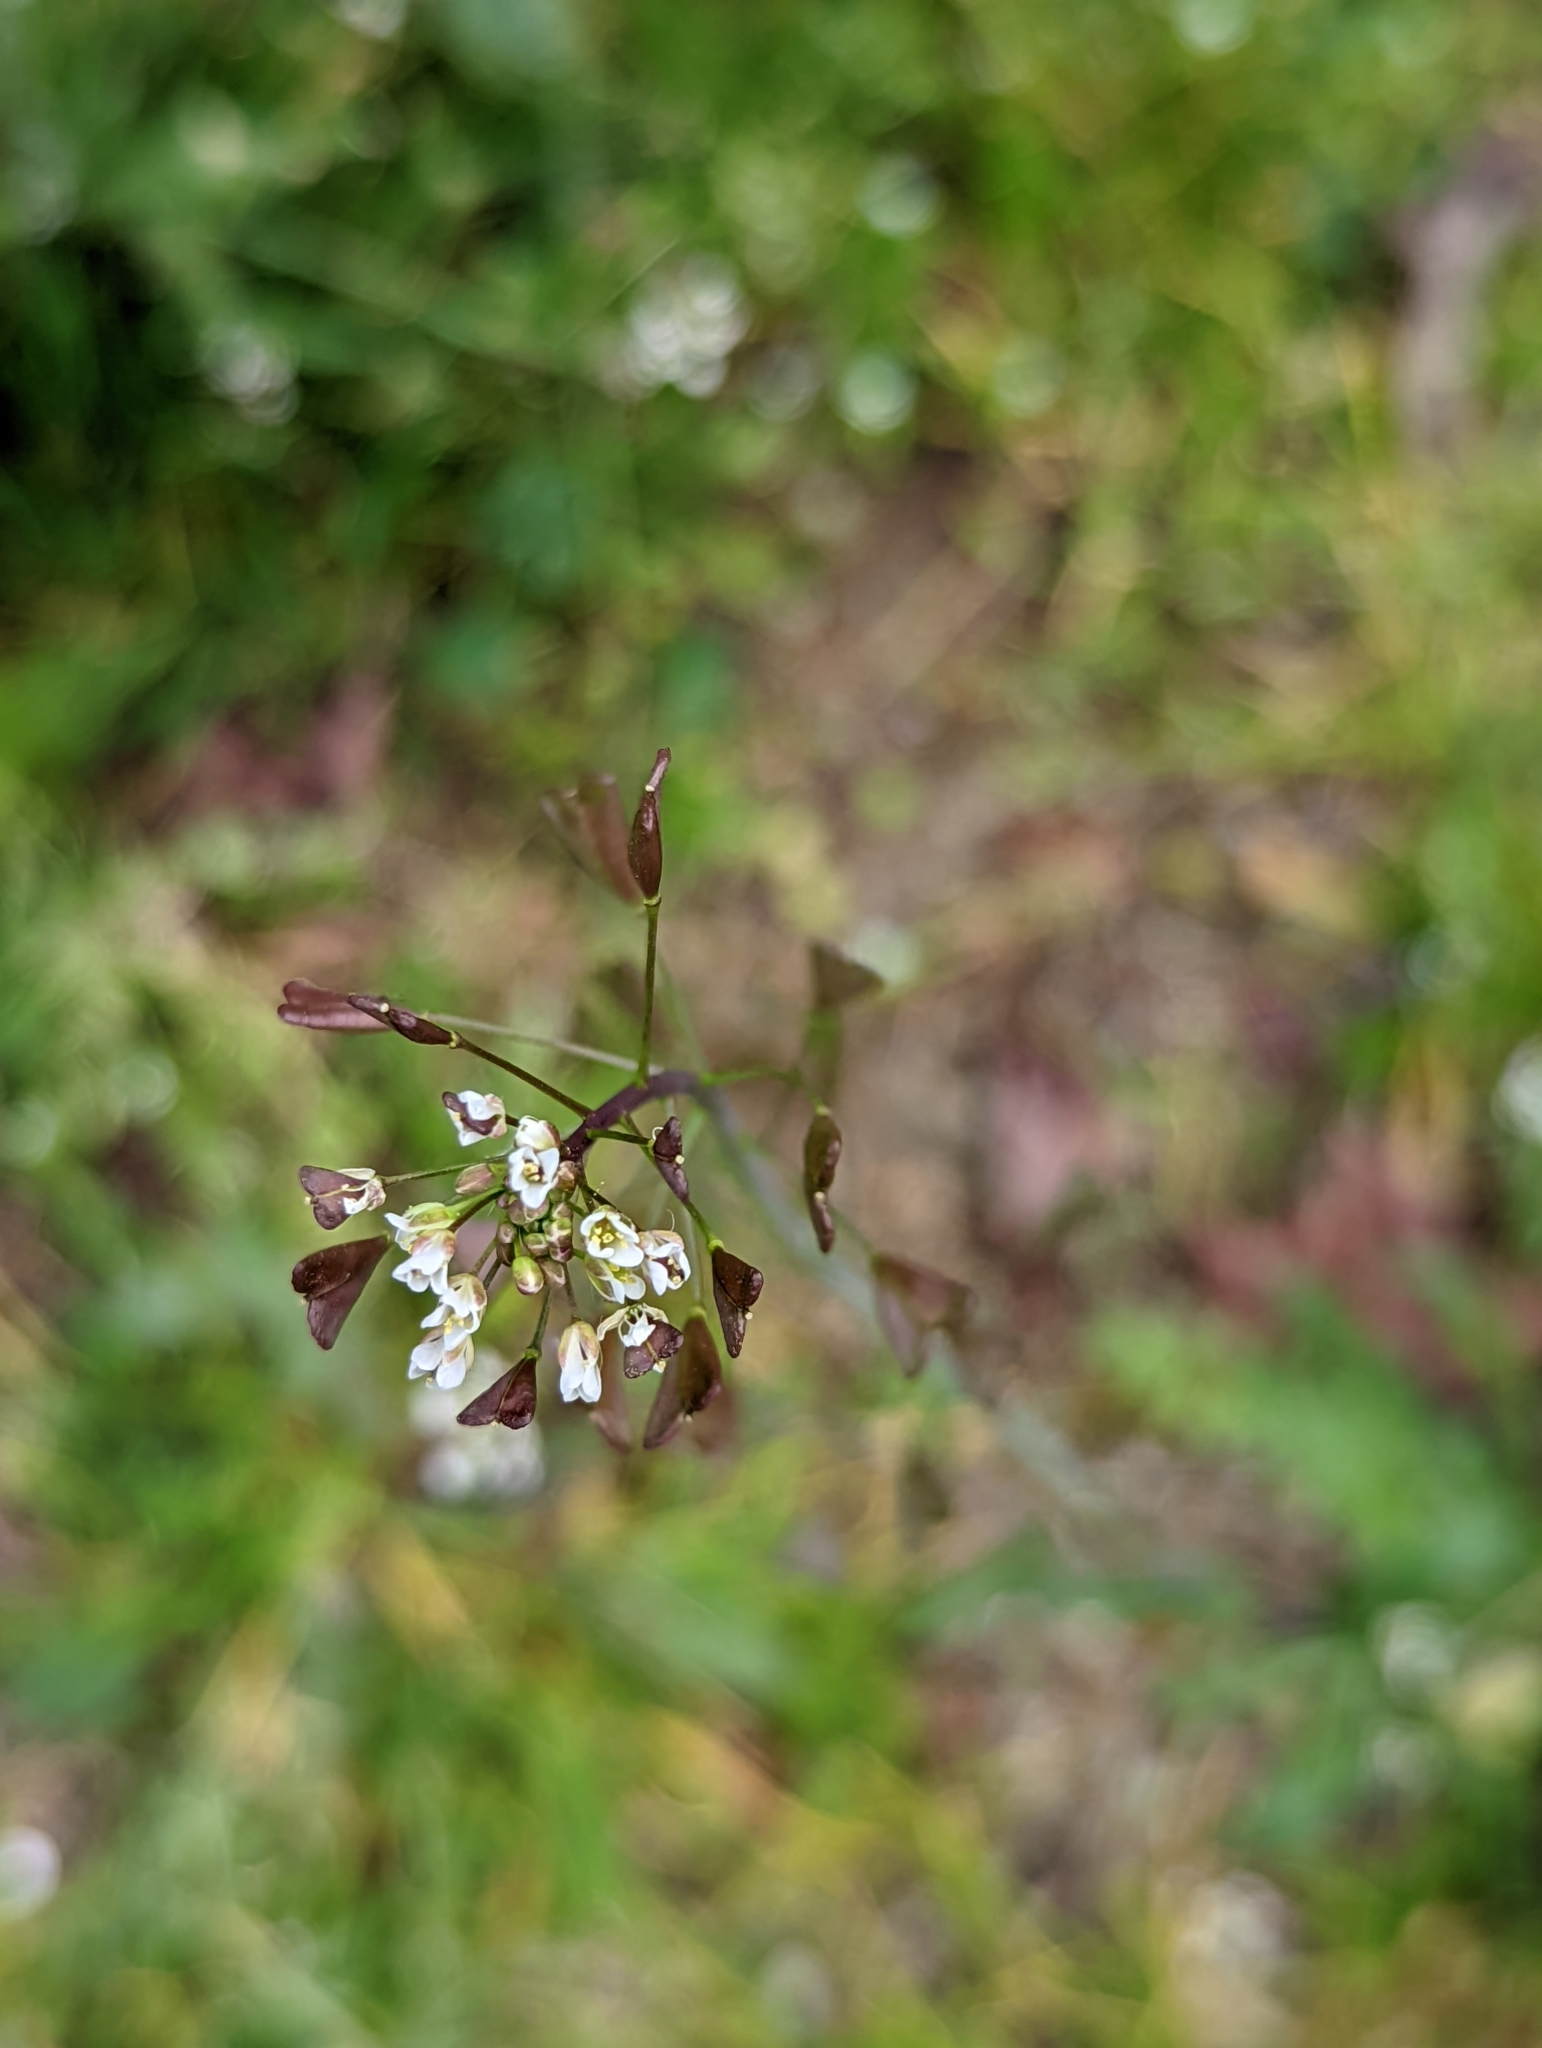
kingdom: Plantae
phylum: Tracheophyta
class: Magnoliopsida
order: Brassicales
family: Brassicaceae
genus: Capsella
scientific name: Capsella bursa-pastoris
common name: Shepherd's purse
